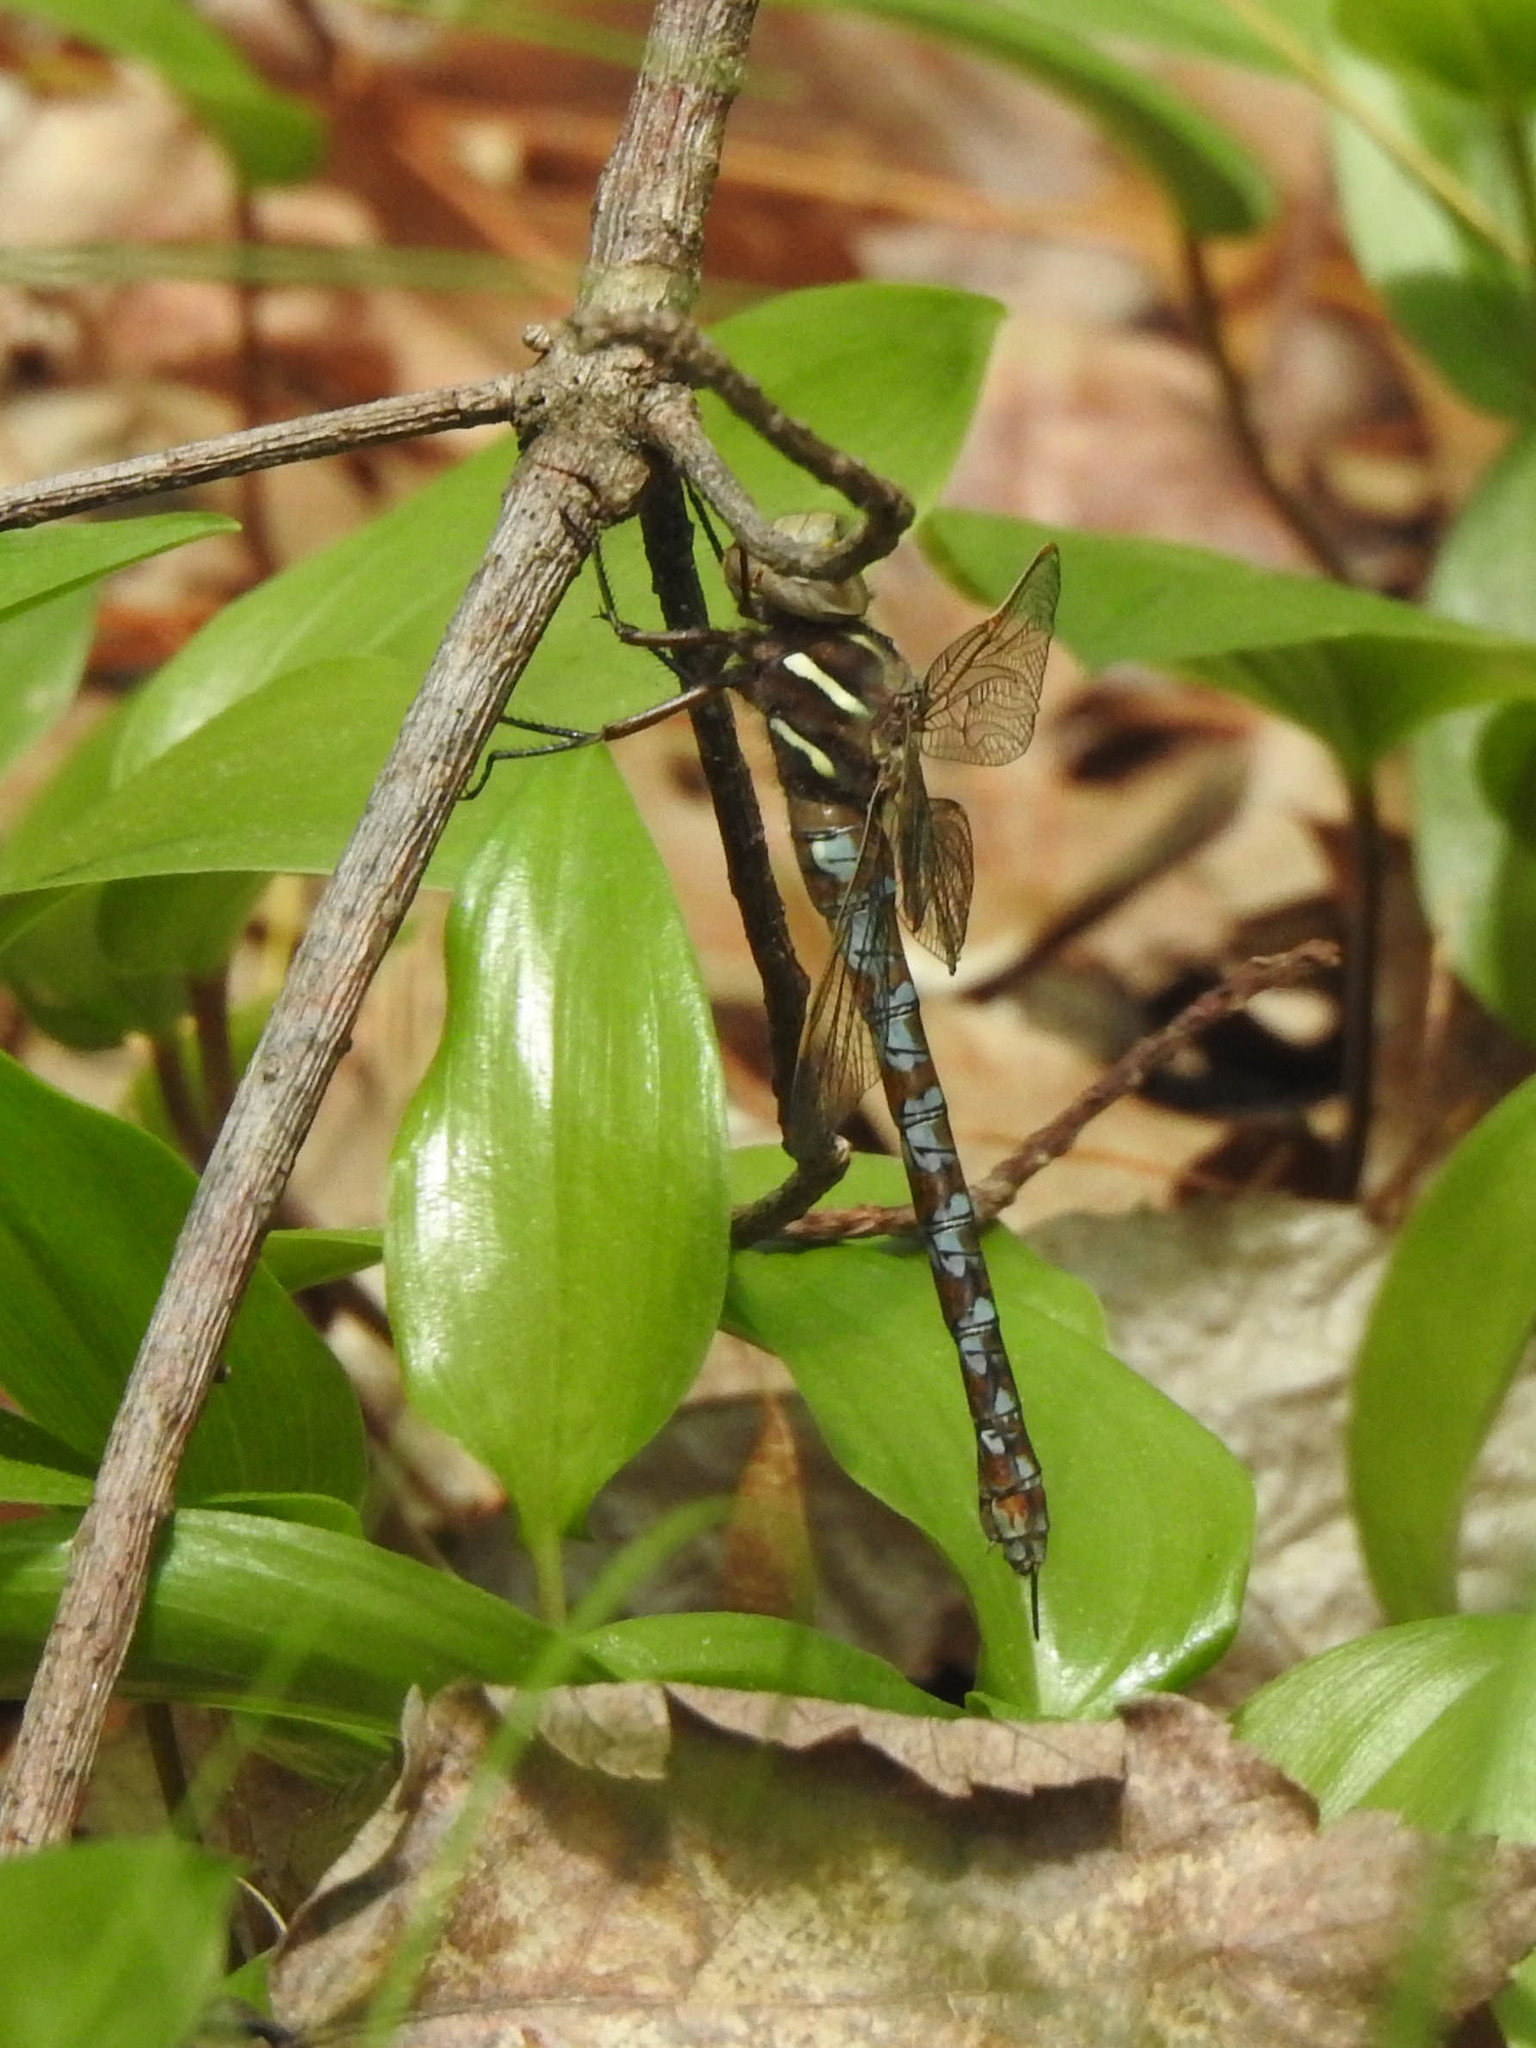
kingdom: Animalia
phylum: Arthropoda
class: Insecta
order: Odonata
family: Aeshnidae
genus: Basiaeschna
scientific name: Basiaeschna janata
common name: Springtime darner
